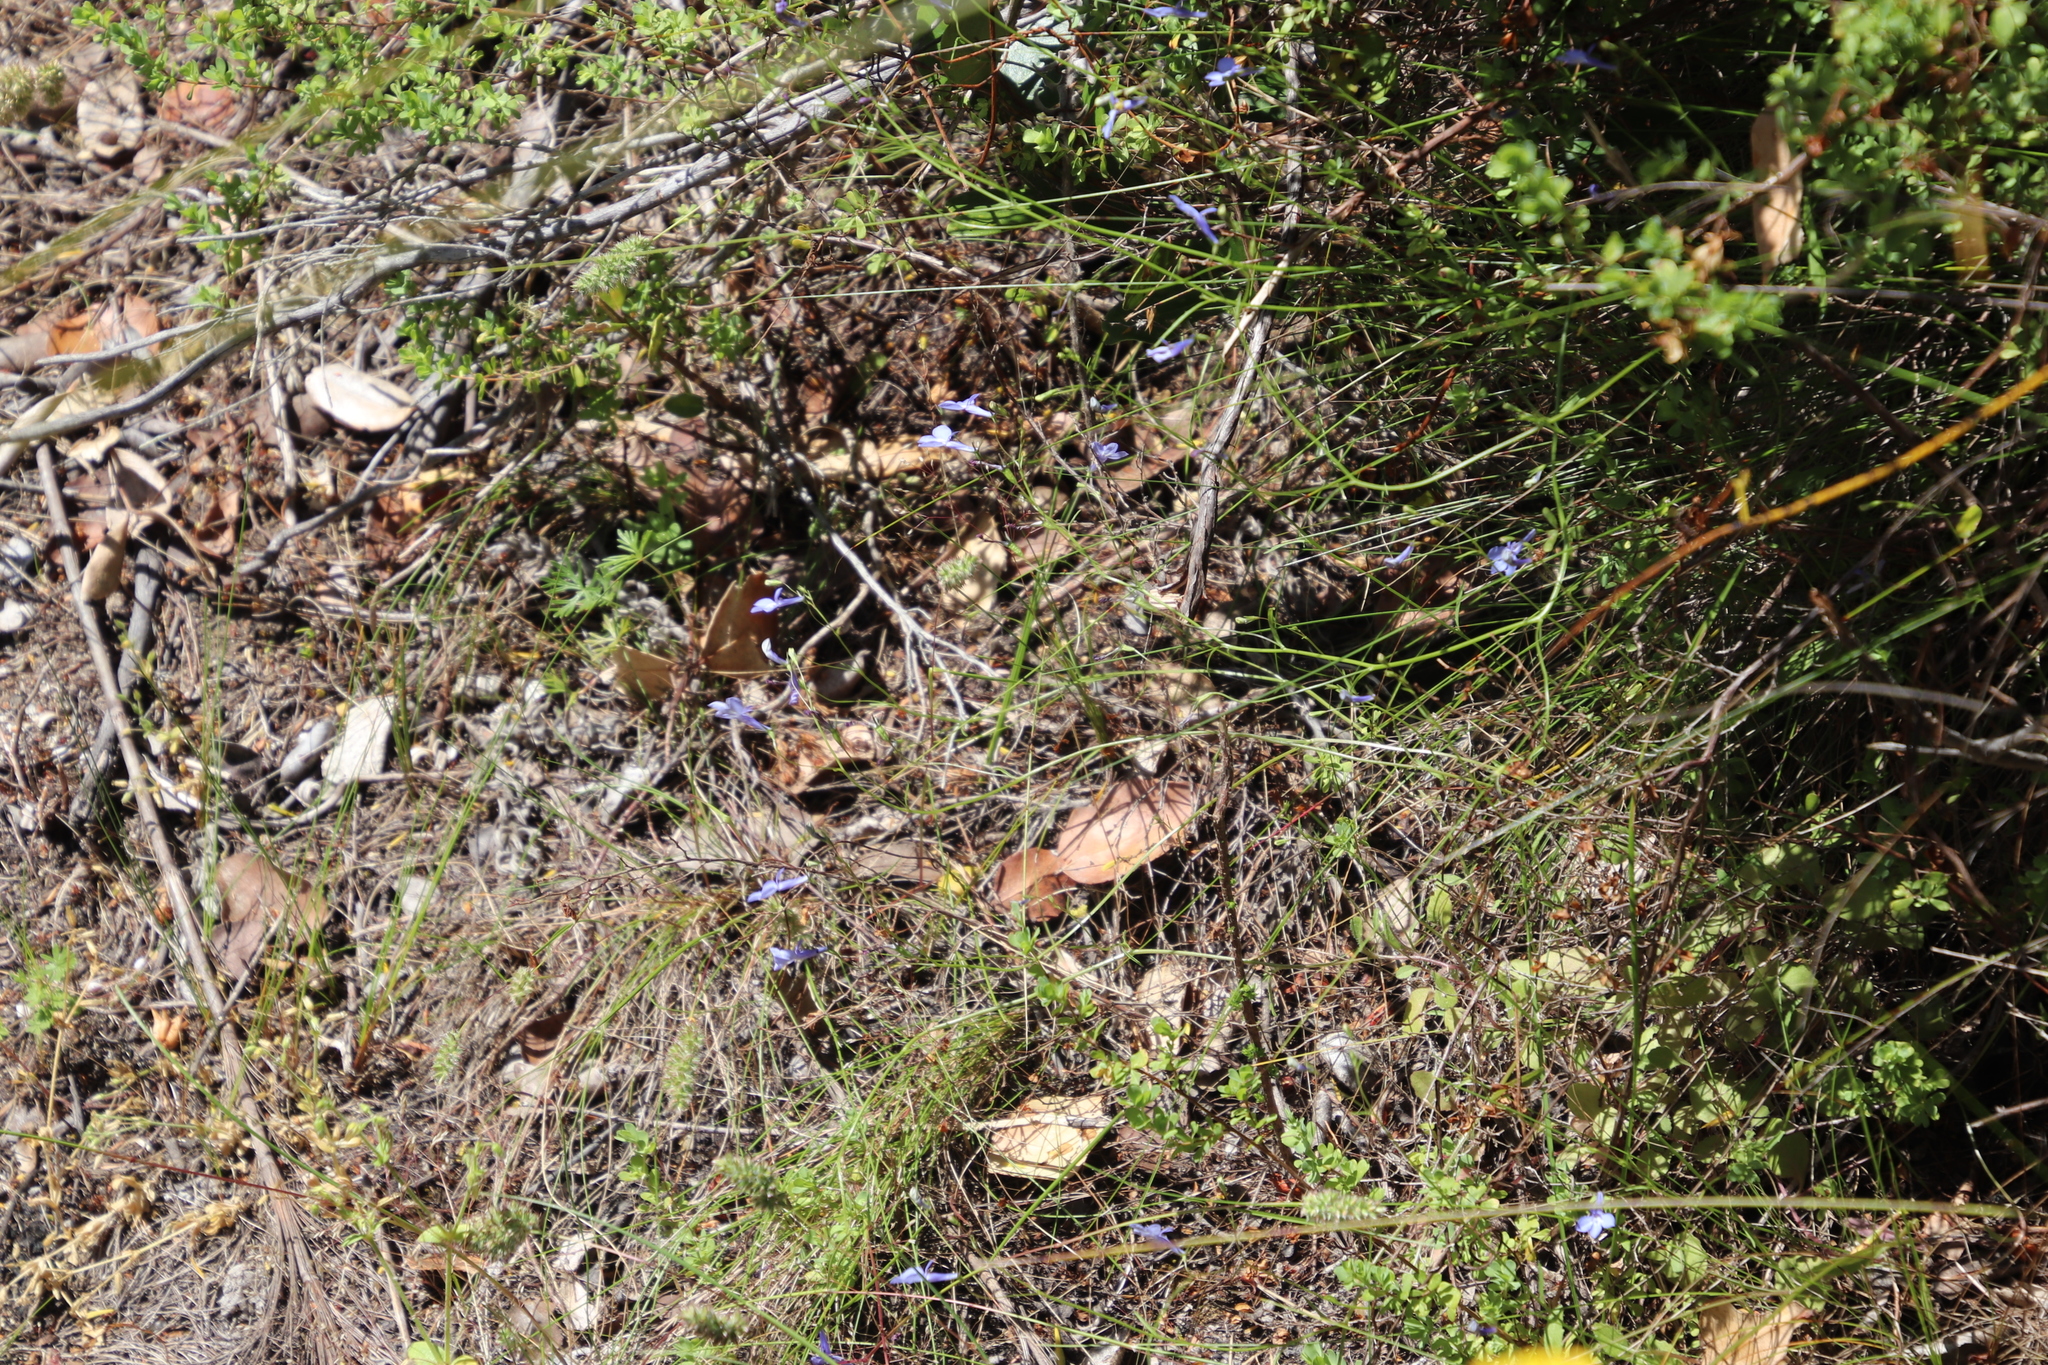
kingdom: Plantae
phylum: Tracheophyta
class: Magnoliopsida
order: Asterales
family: Campanulaceae
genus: Lobelia
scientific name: Lobelia erinus
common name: Edging lobelia
